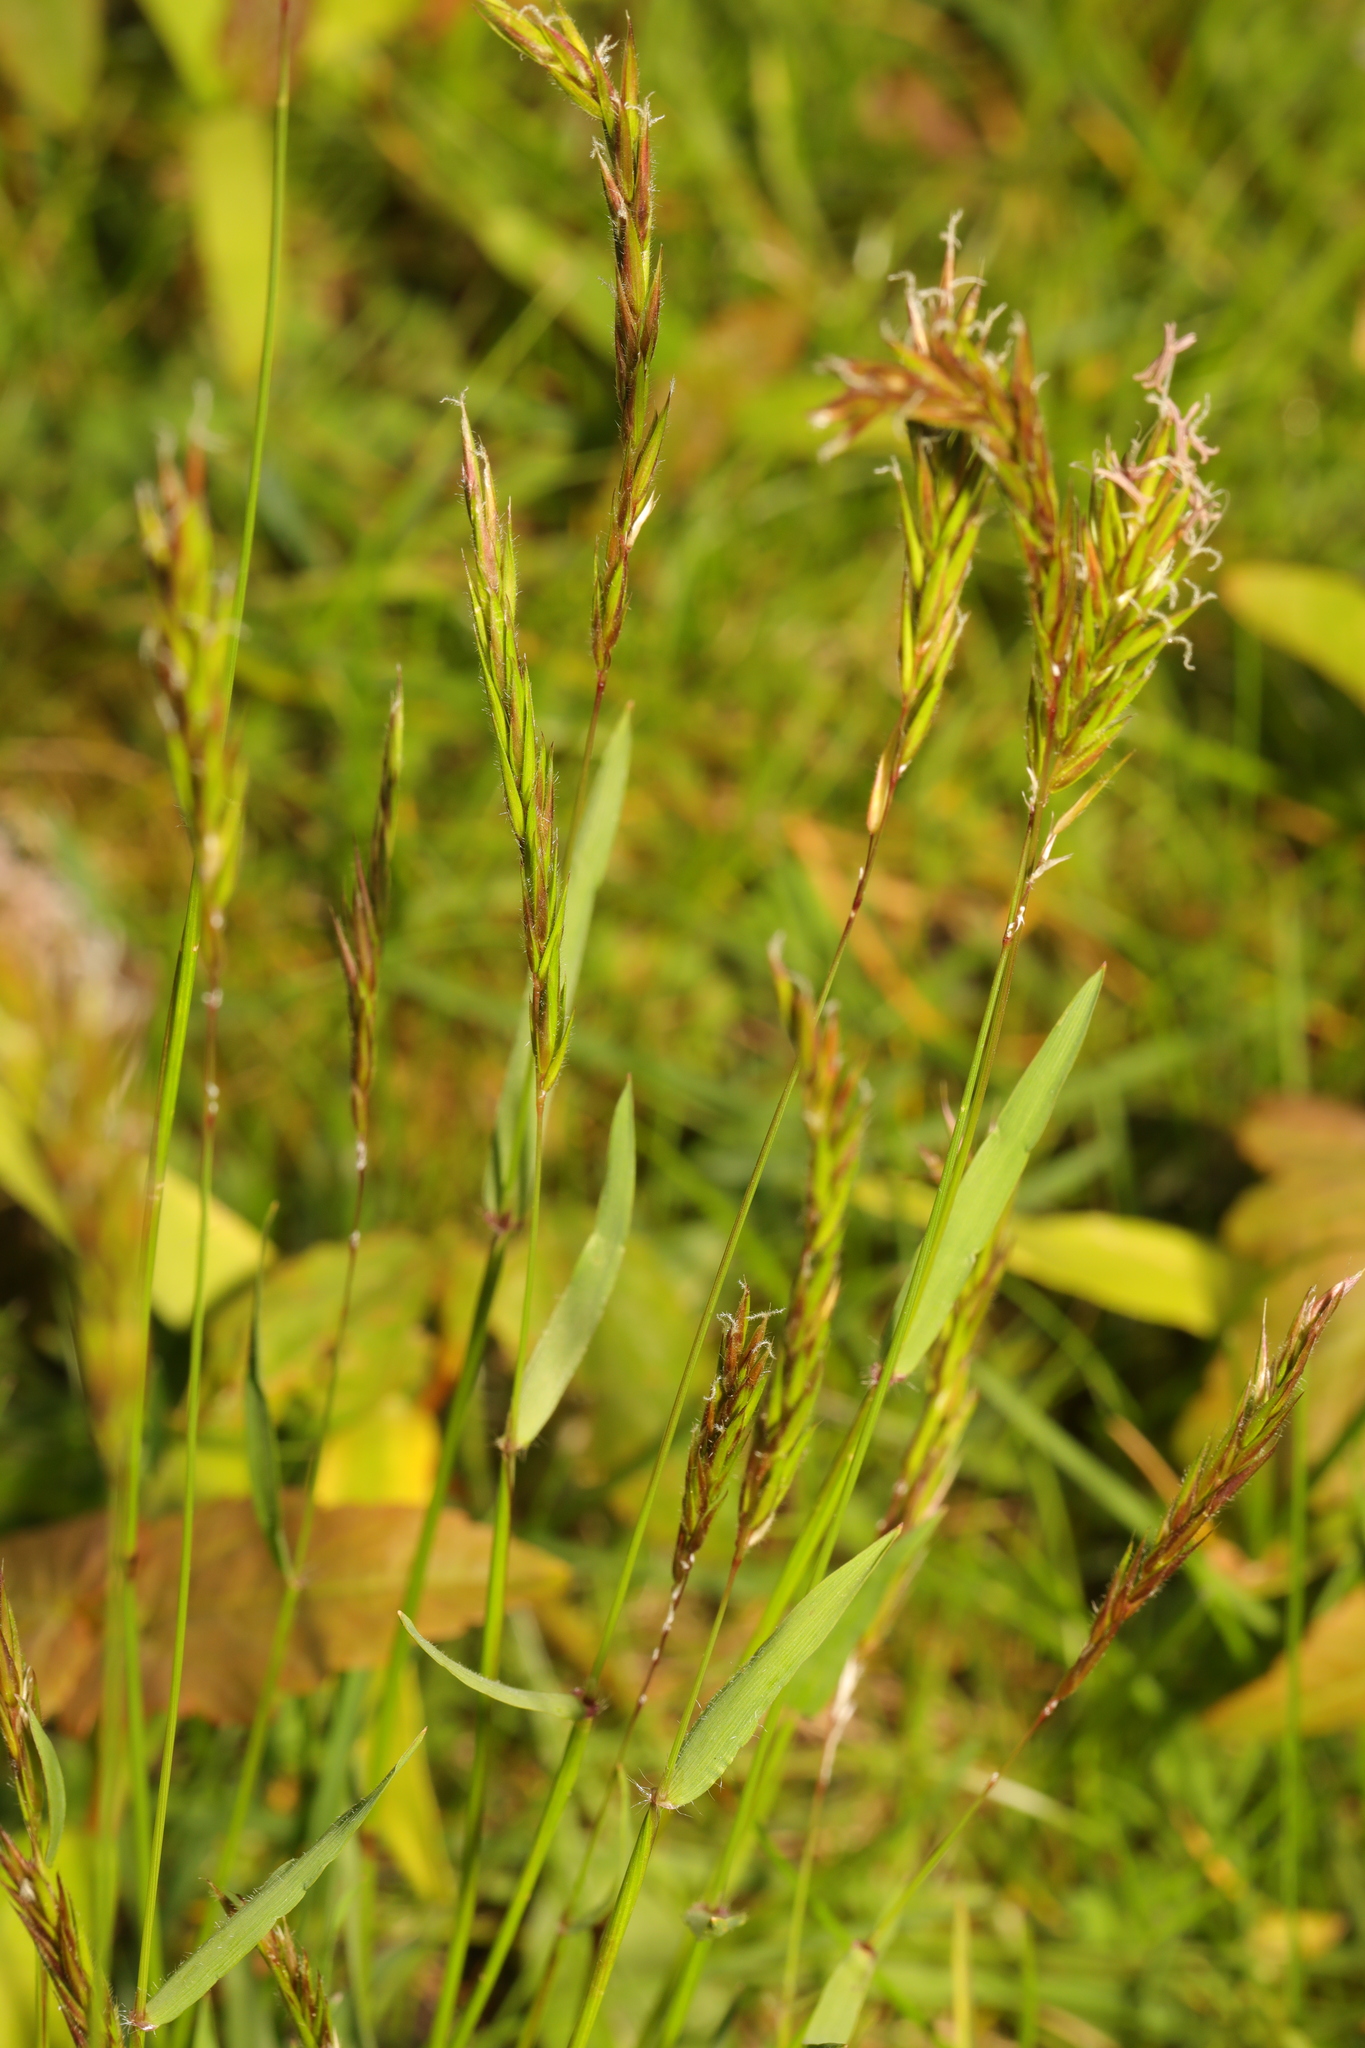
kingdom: Plantae
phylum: Tracheophyta
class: Liliopsida
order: Poales
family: Poaceae
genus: Anthoxanthum
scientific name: Anthoxanthum odoratum
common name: Sweet vernalgrass
